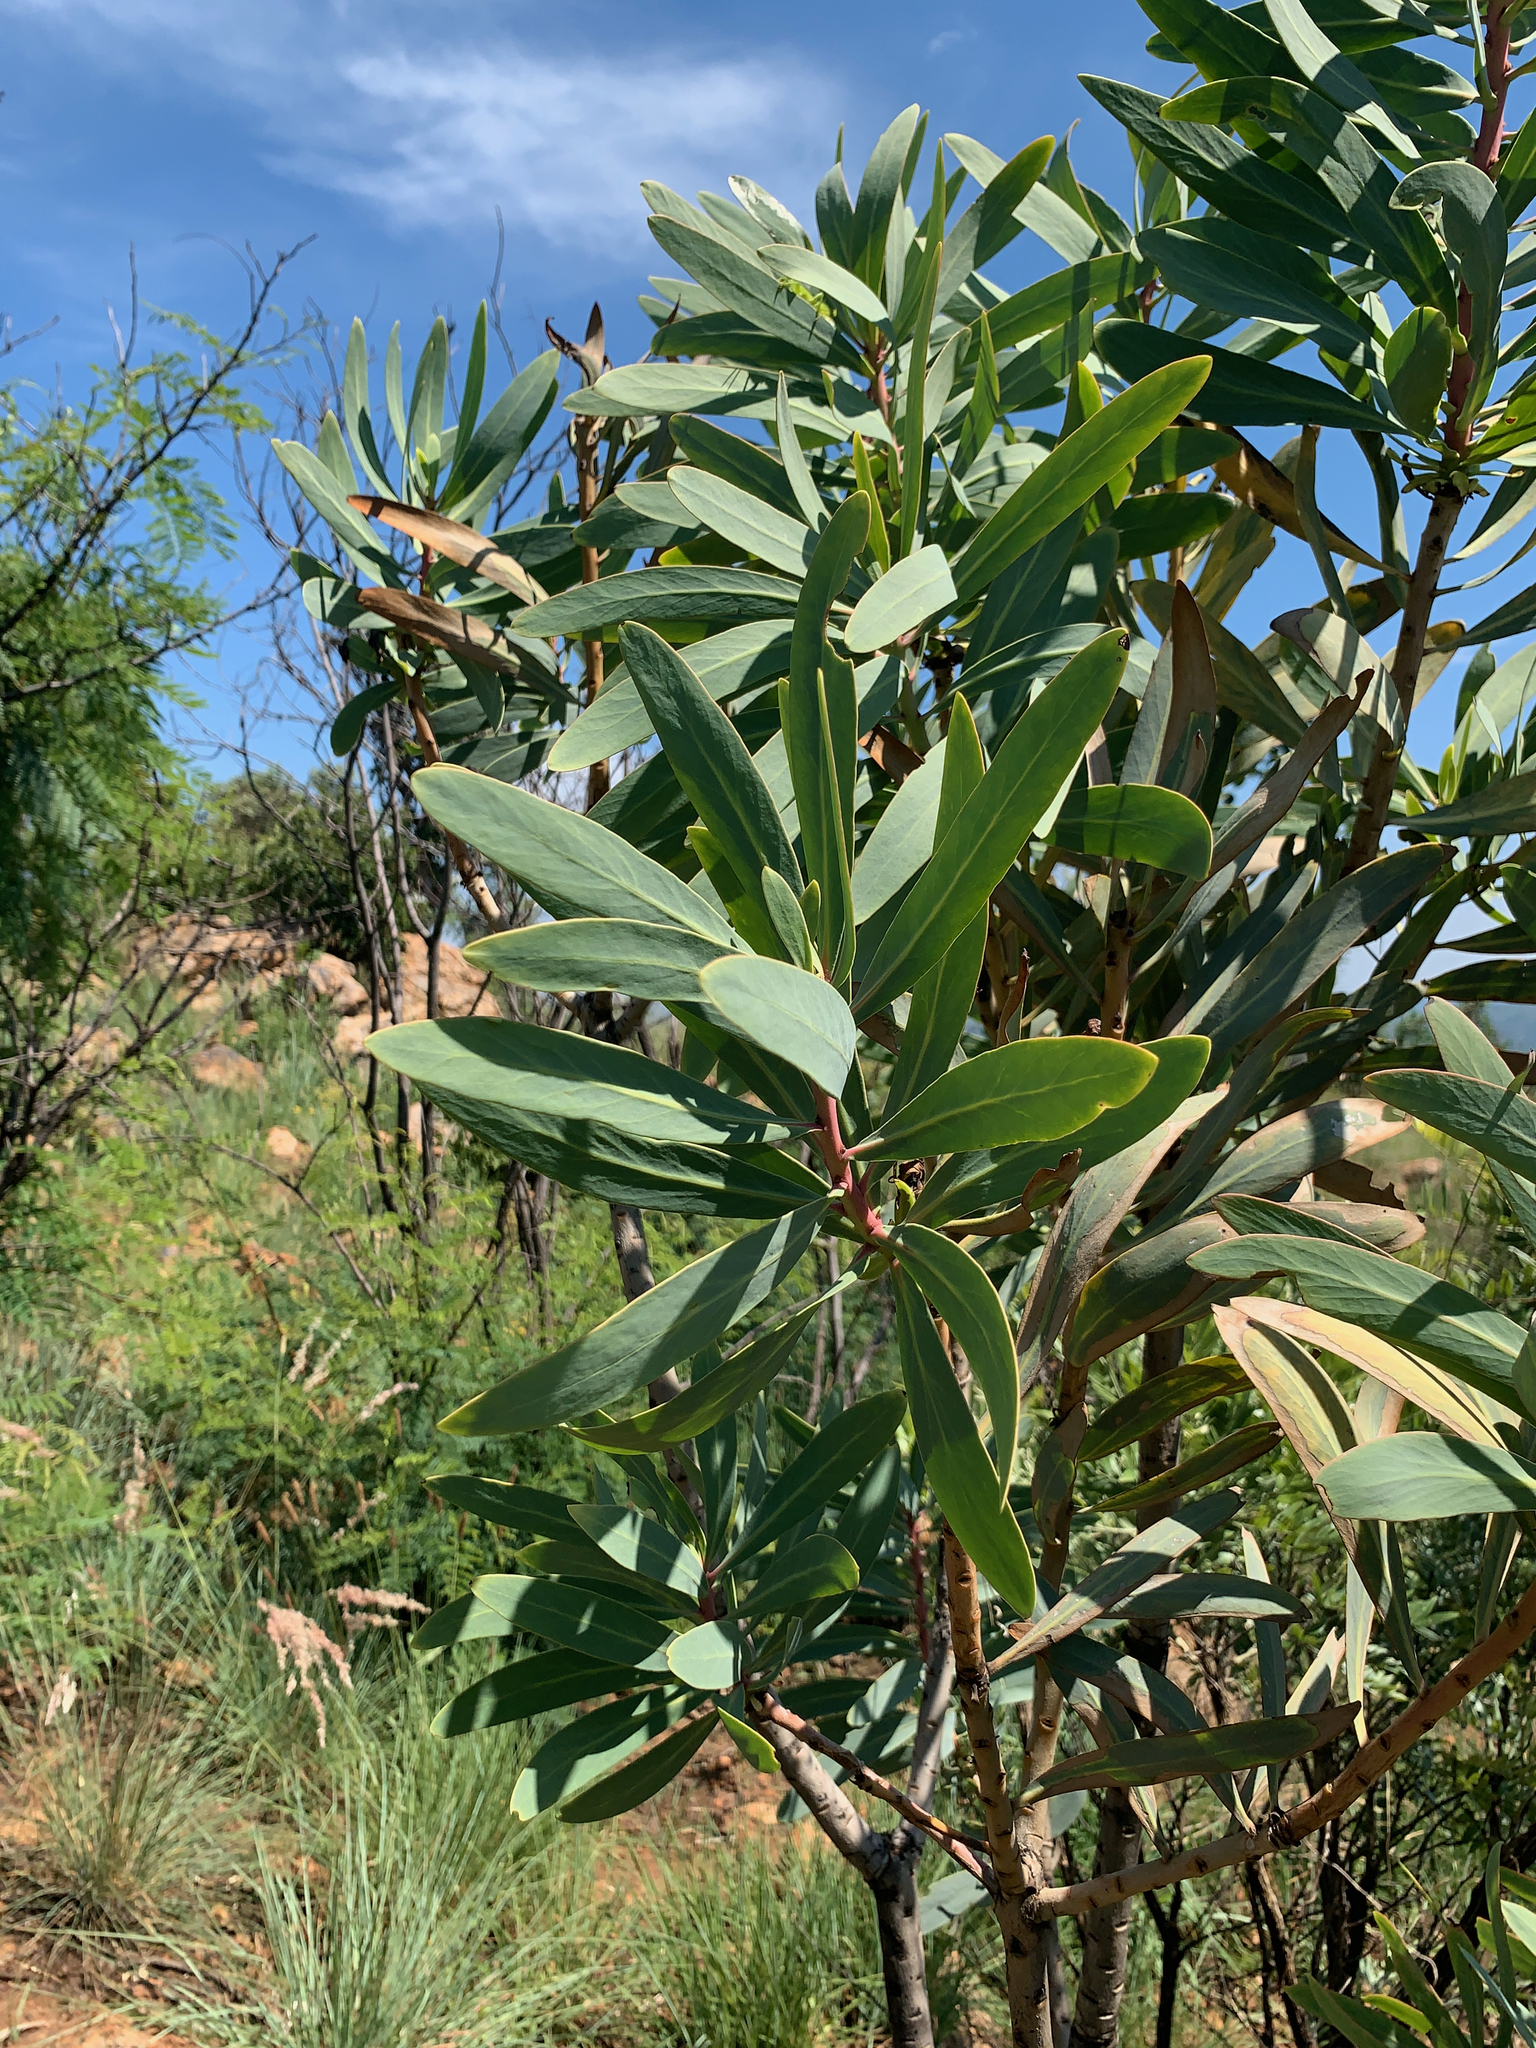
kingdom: Plantae
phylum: Tracheophyta
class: Magnoliopsida
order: Proteales
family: Proteaceae
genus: Protea
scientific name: Protea caffra
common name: Common sugarbush
